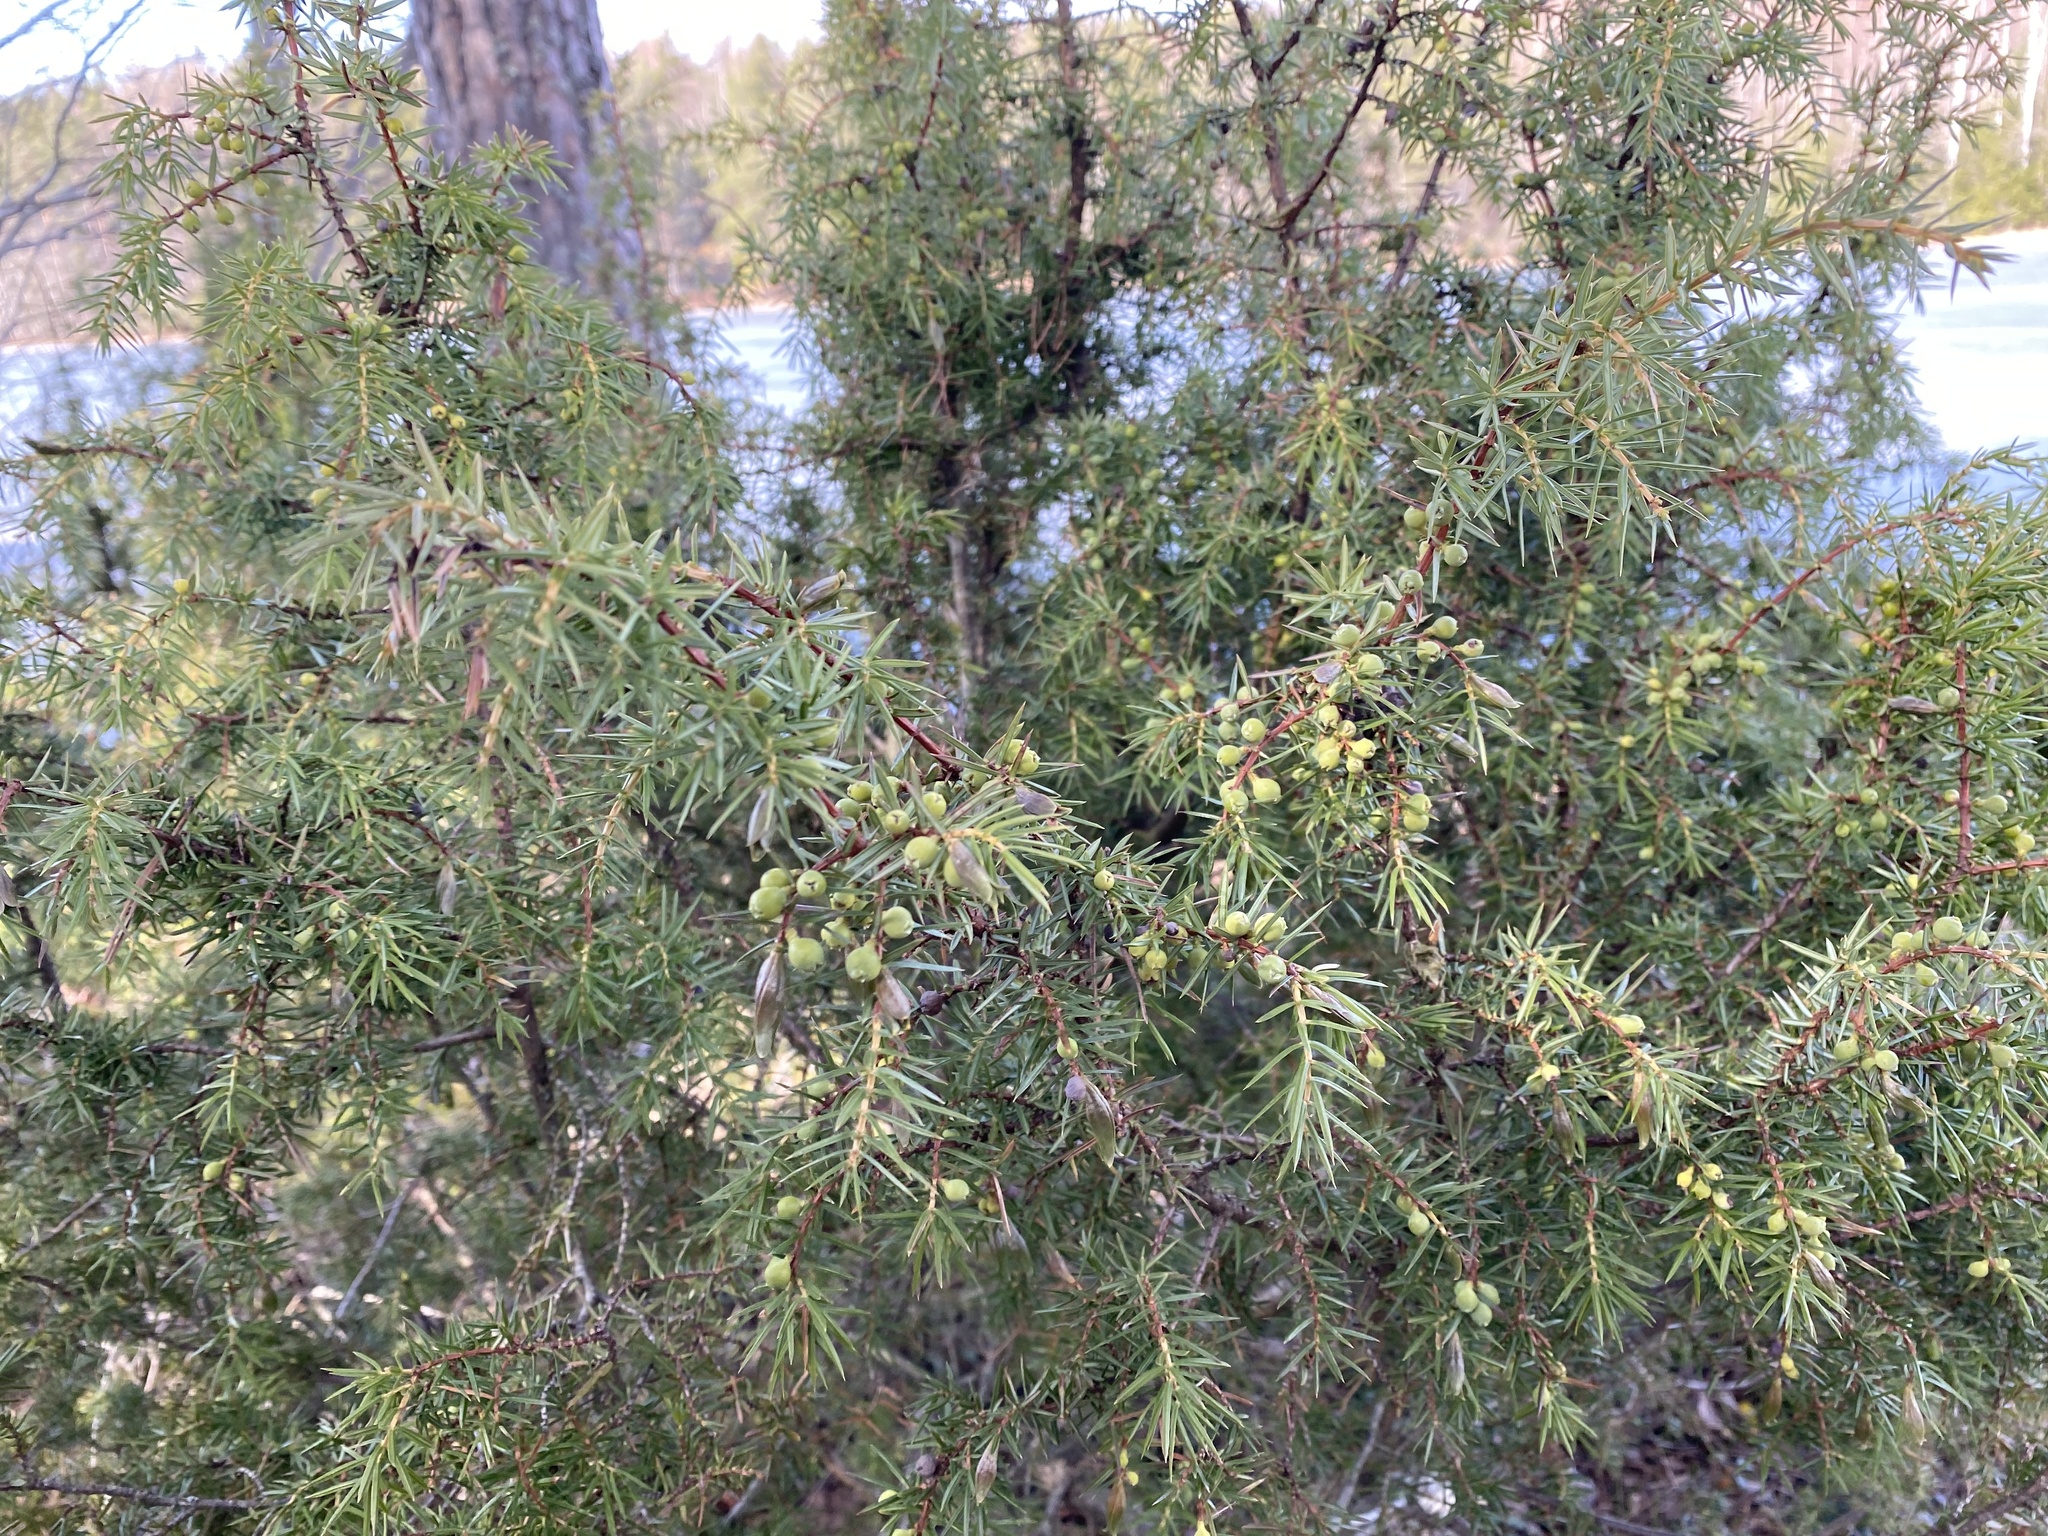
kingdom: Plantae
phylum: Tracheophyta
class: Pinopsida
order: Pinales
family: Cupressaceae
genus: Juniperus
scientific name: Juniperus communis
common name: Common juniper
